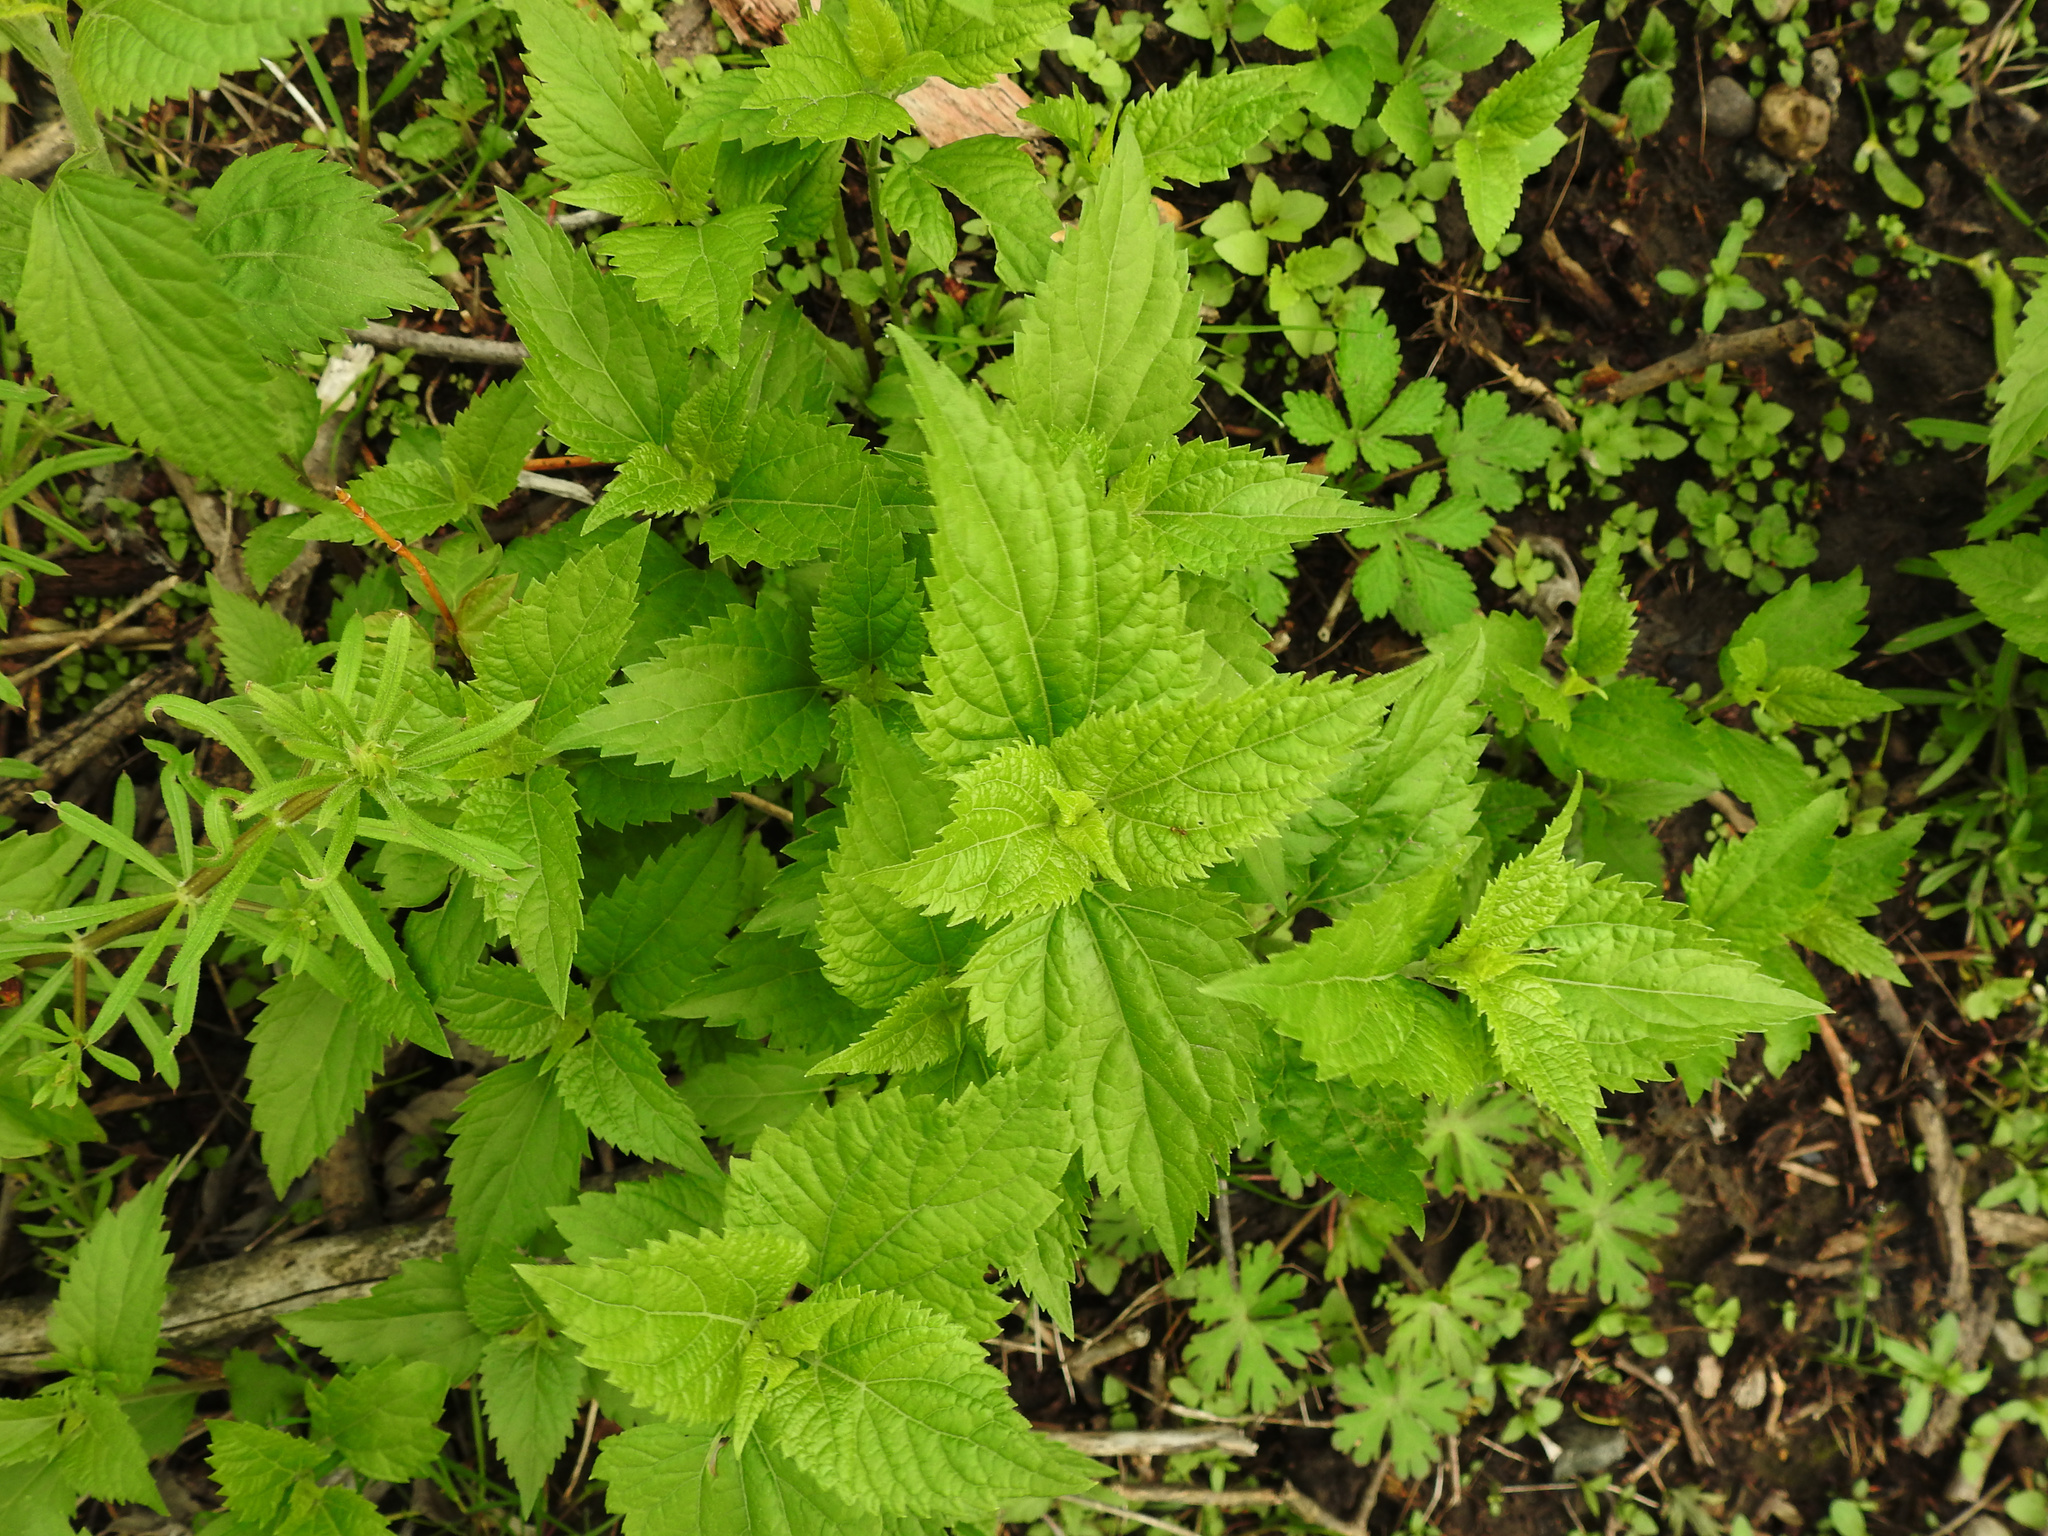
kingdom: Plantae
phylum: Tracheophyta
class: Magnoliopsida
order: Rosales
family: Urticaceae
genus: Urtica
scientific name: Urtica dioica
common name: Common nettle
